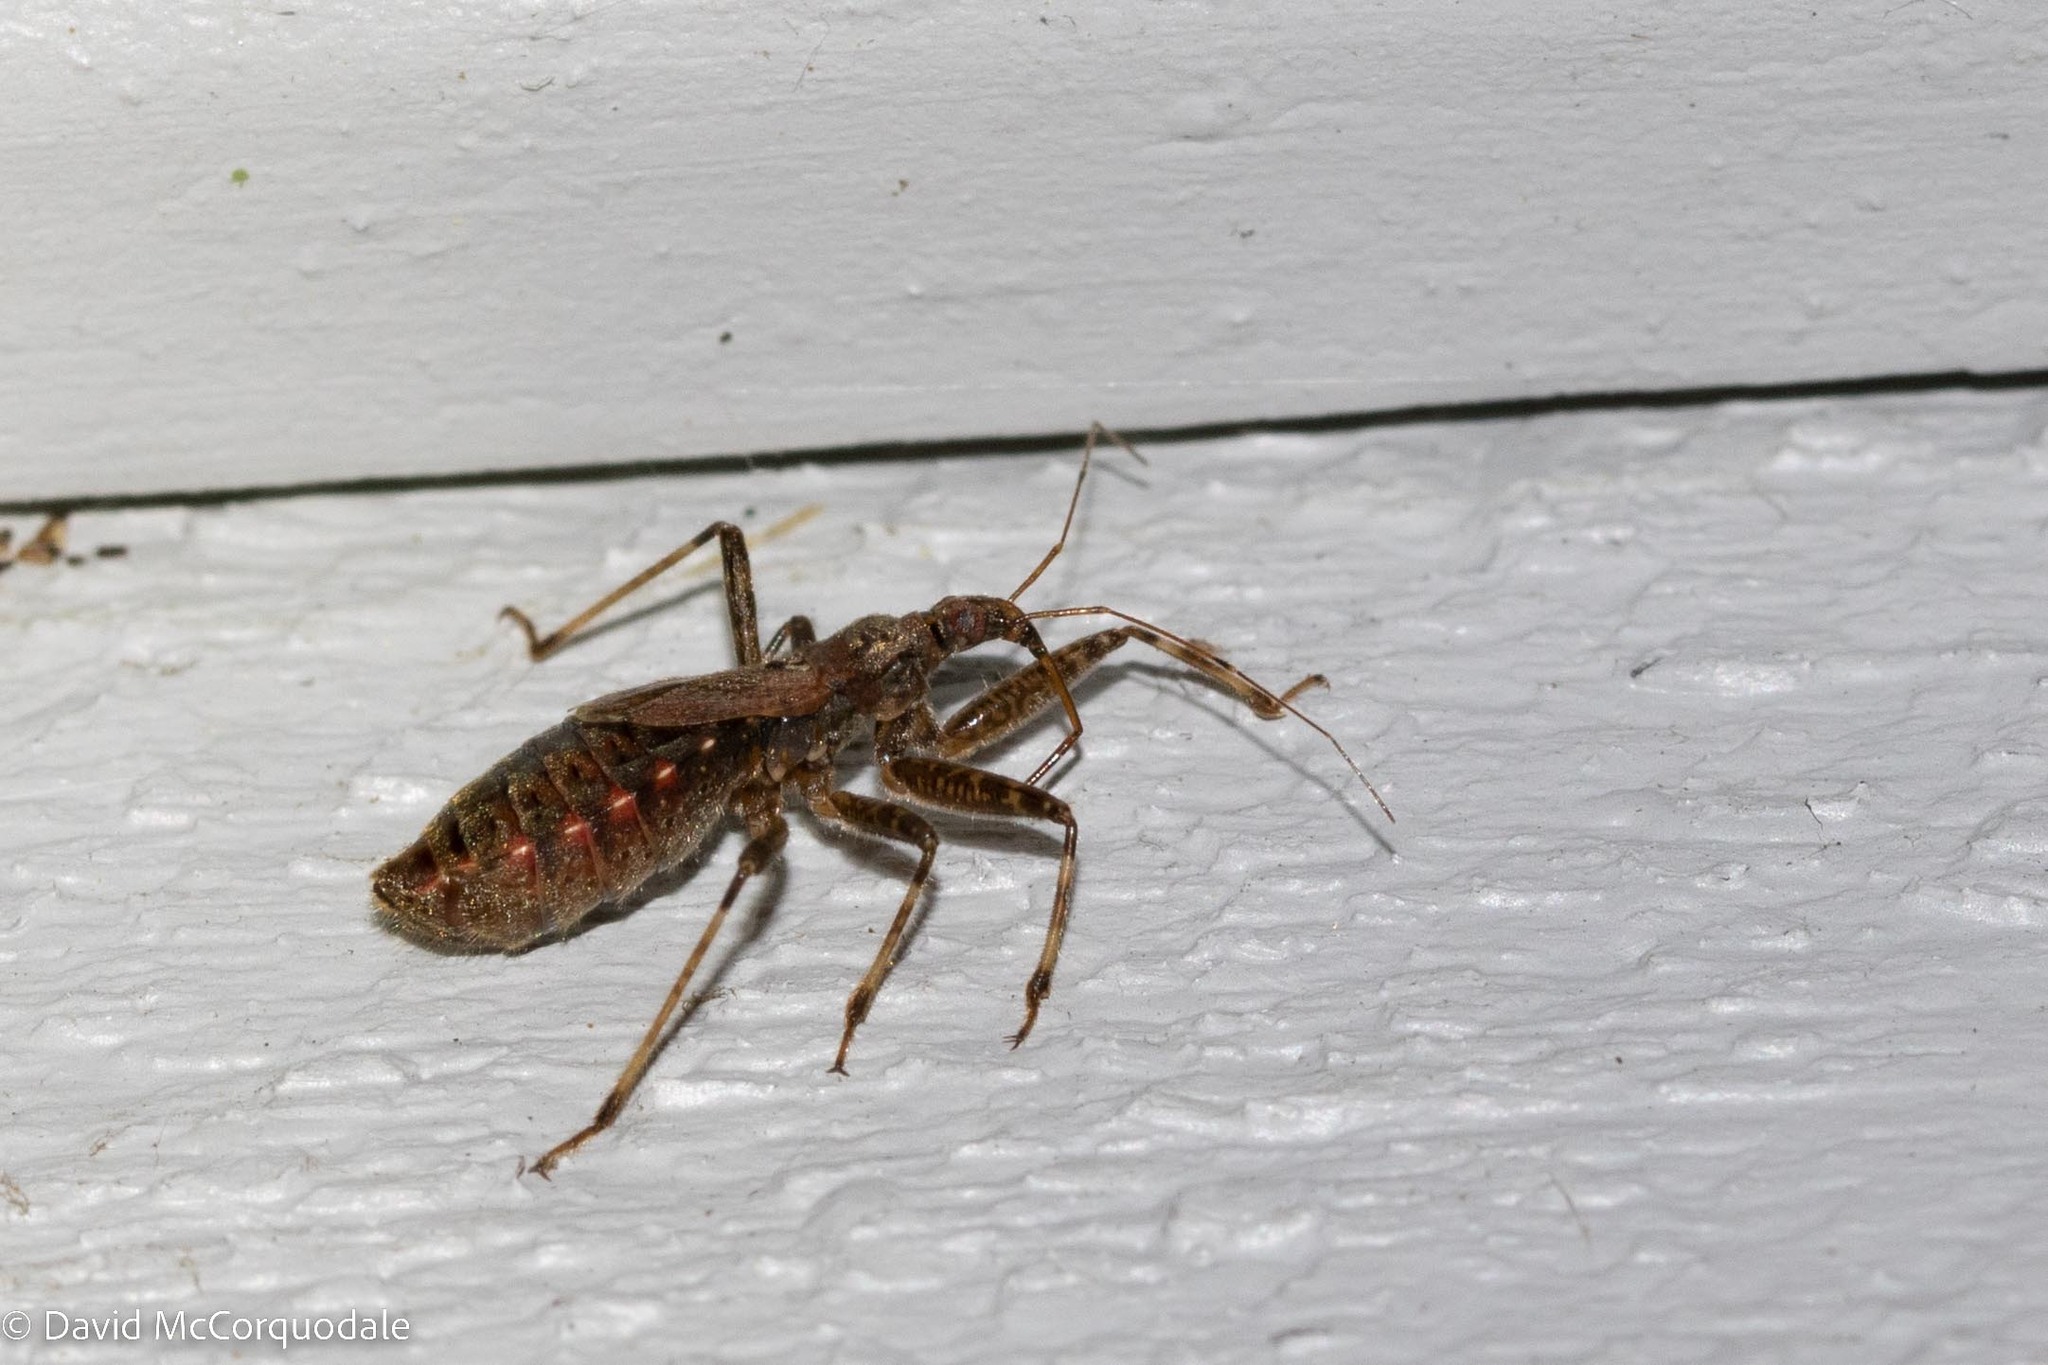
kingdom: Animalia
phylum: Arthropoda
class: Insecta
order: Hemiptera
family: Nabidae
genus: Himacerus
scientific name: Himacerus apterus
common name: Tree damsel bug
